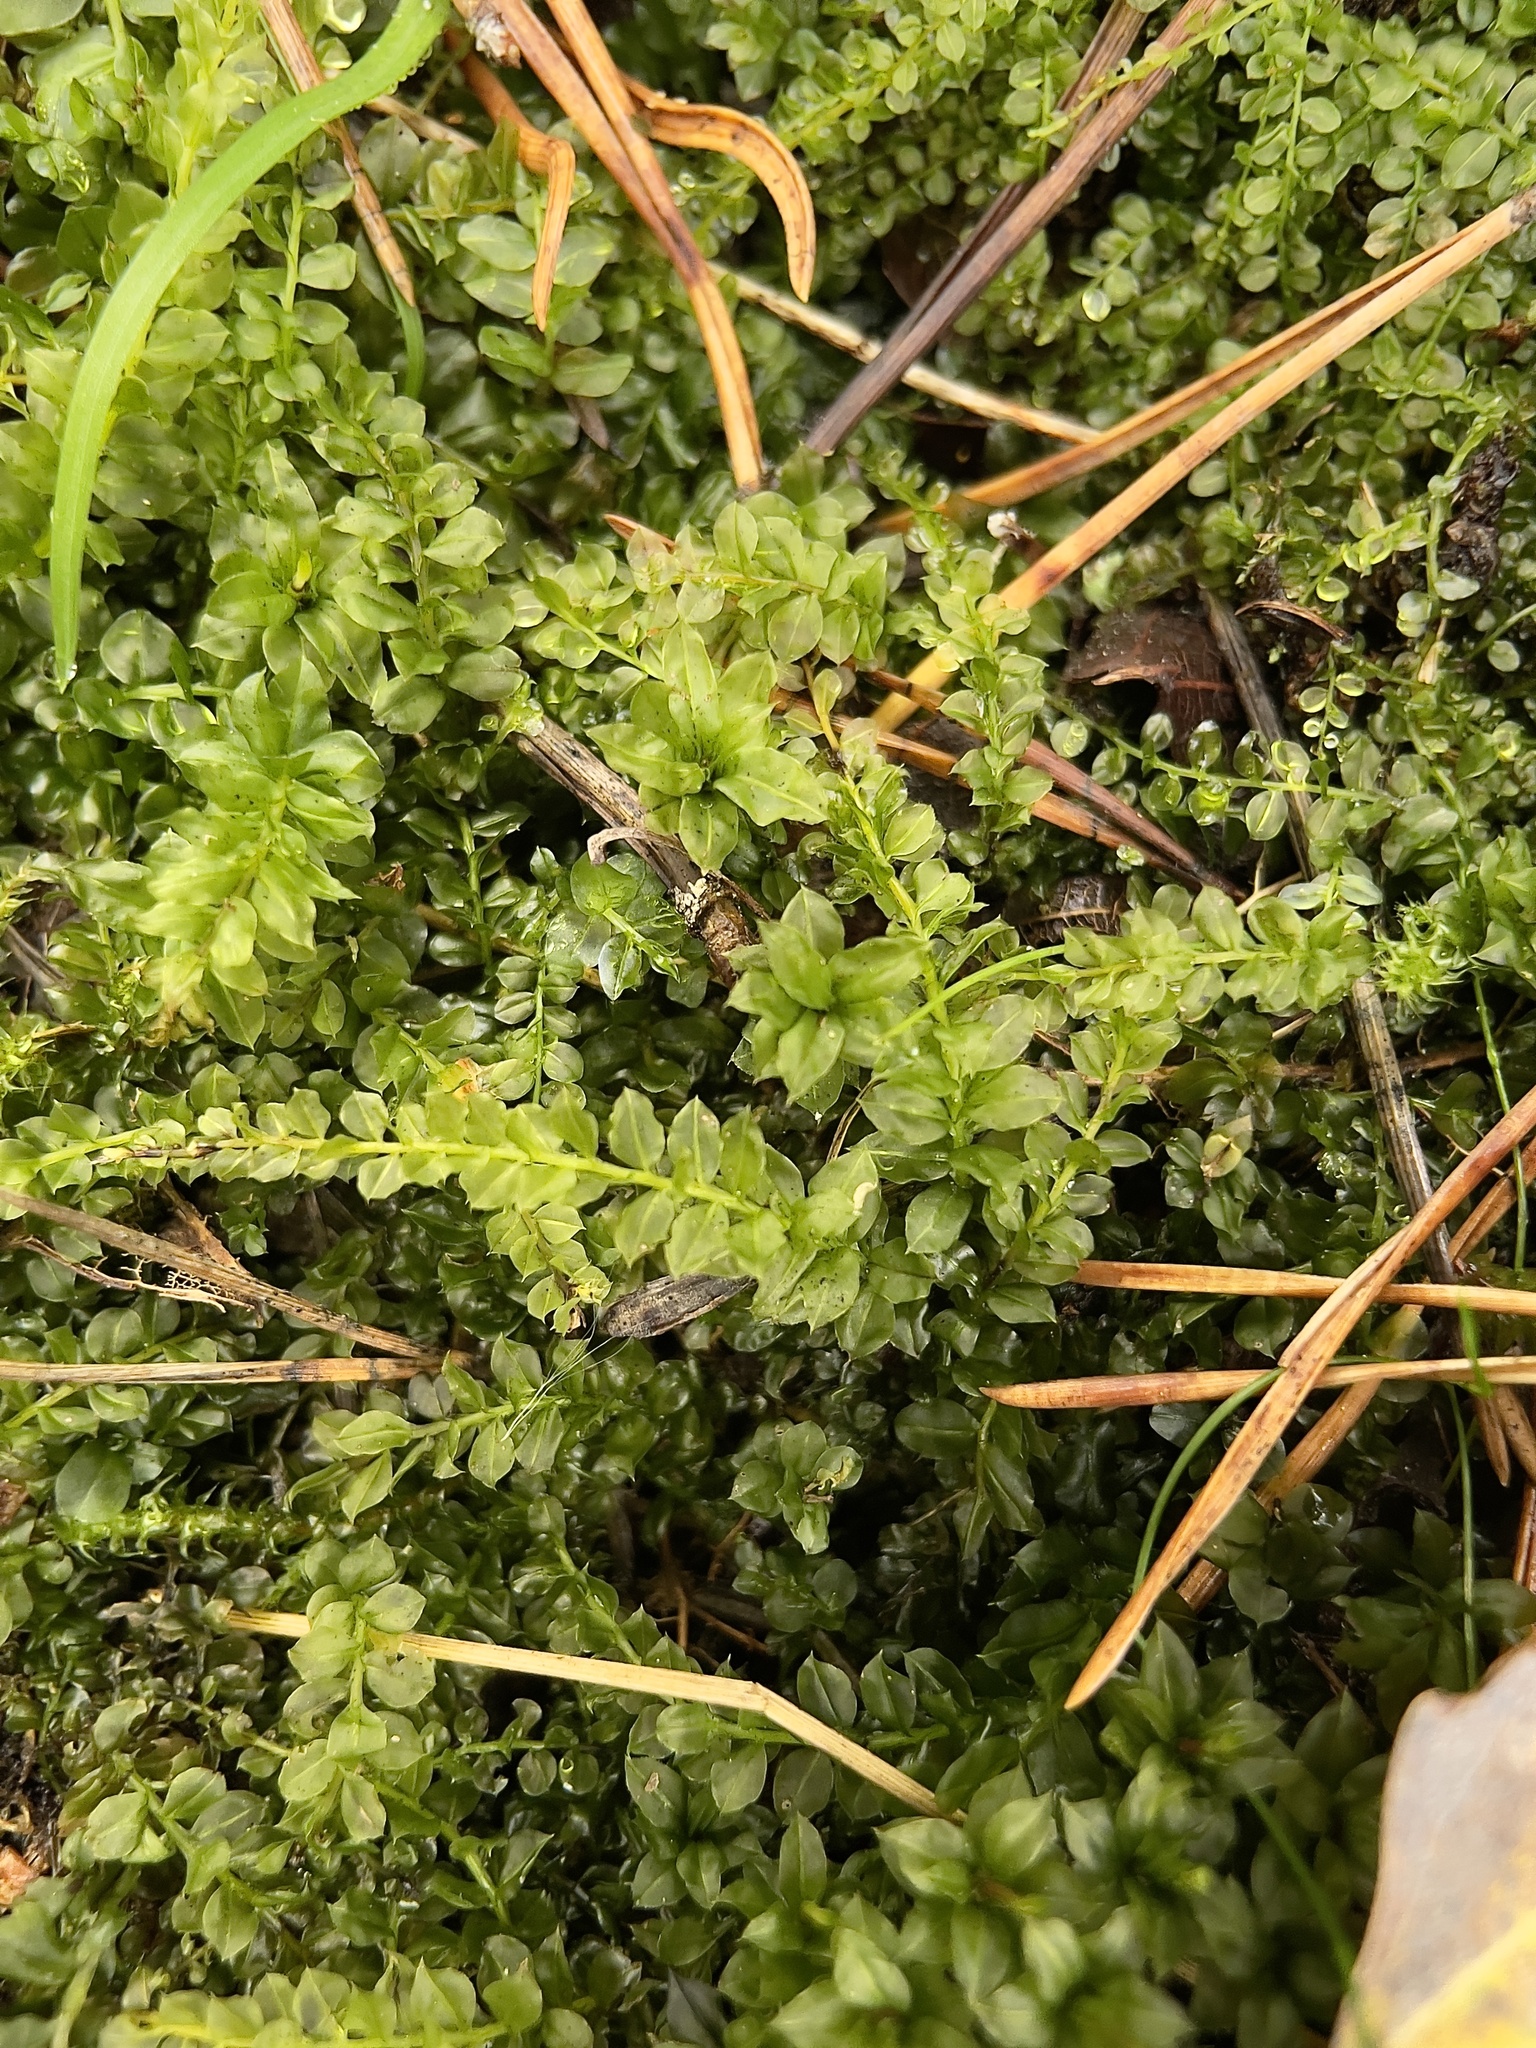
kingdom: Plantae
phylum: Bryophyta
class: Bryopsida
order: Bryales
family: Mniaceae
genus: Plagiomnium
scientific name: Plagiomnium cuspidatum
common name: Woodsy leafy moss
